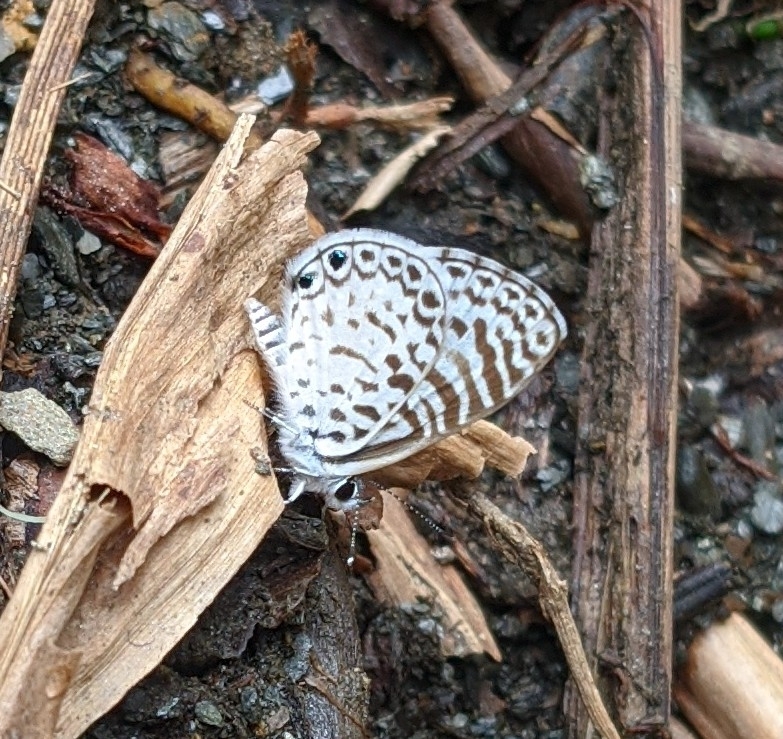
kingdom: Animalia
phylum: Arthropoda
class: Insecta
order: Lepidoptera
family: Lycaenidae
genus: Leptotes
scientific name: Leptotes cassius
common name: Cassius blue
